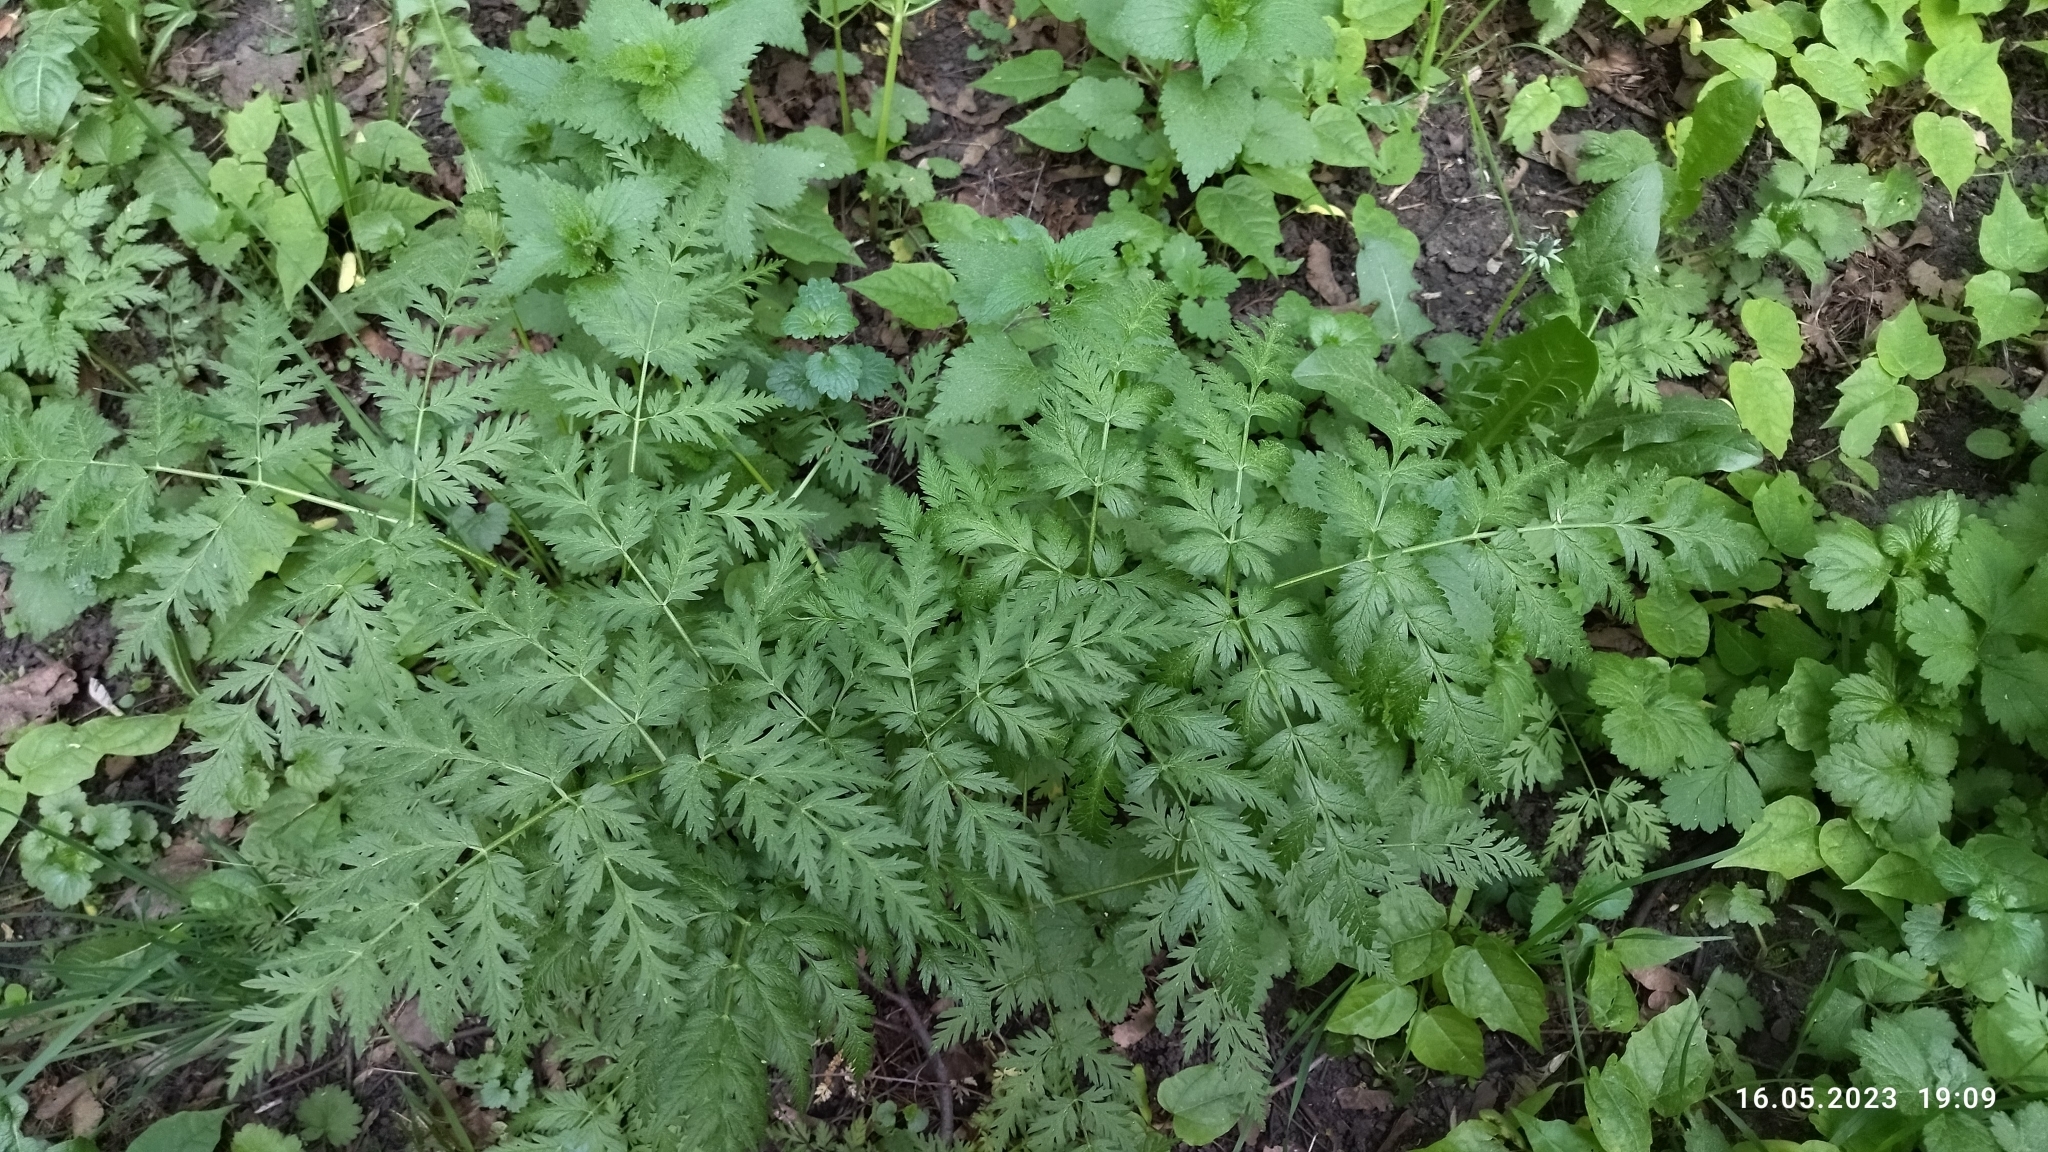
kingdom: Plantae
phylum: Tracheophyta
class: Magnoliopsida
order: Apiales
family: Apiaceae
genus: Anthriscus
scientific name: Anthriscus sylvestris
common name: Cow parsley
